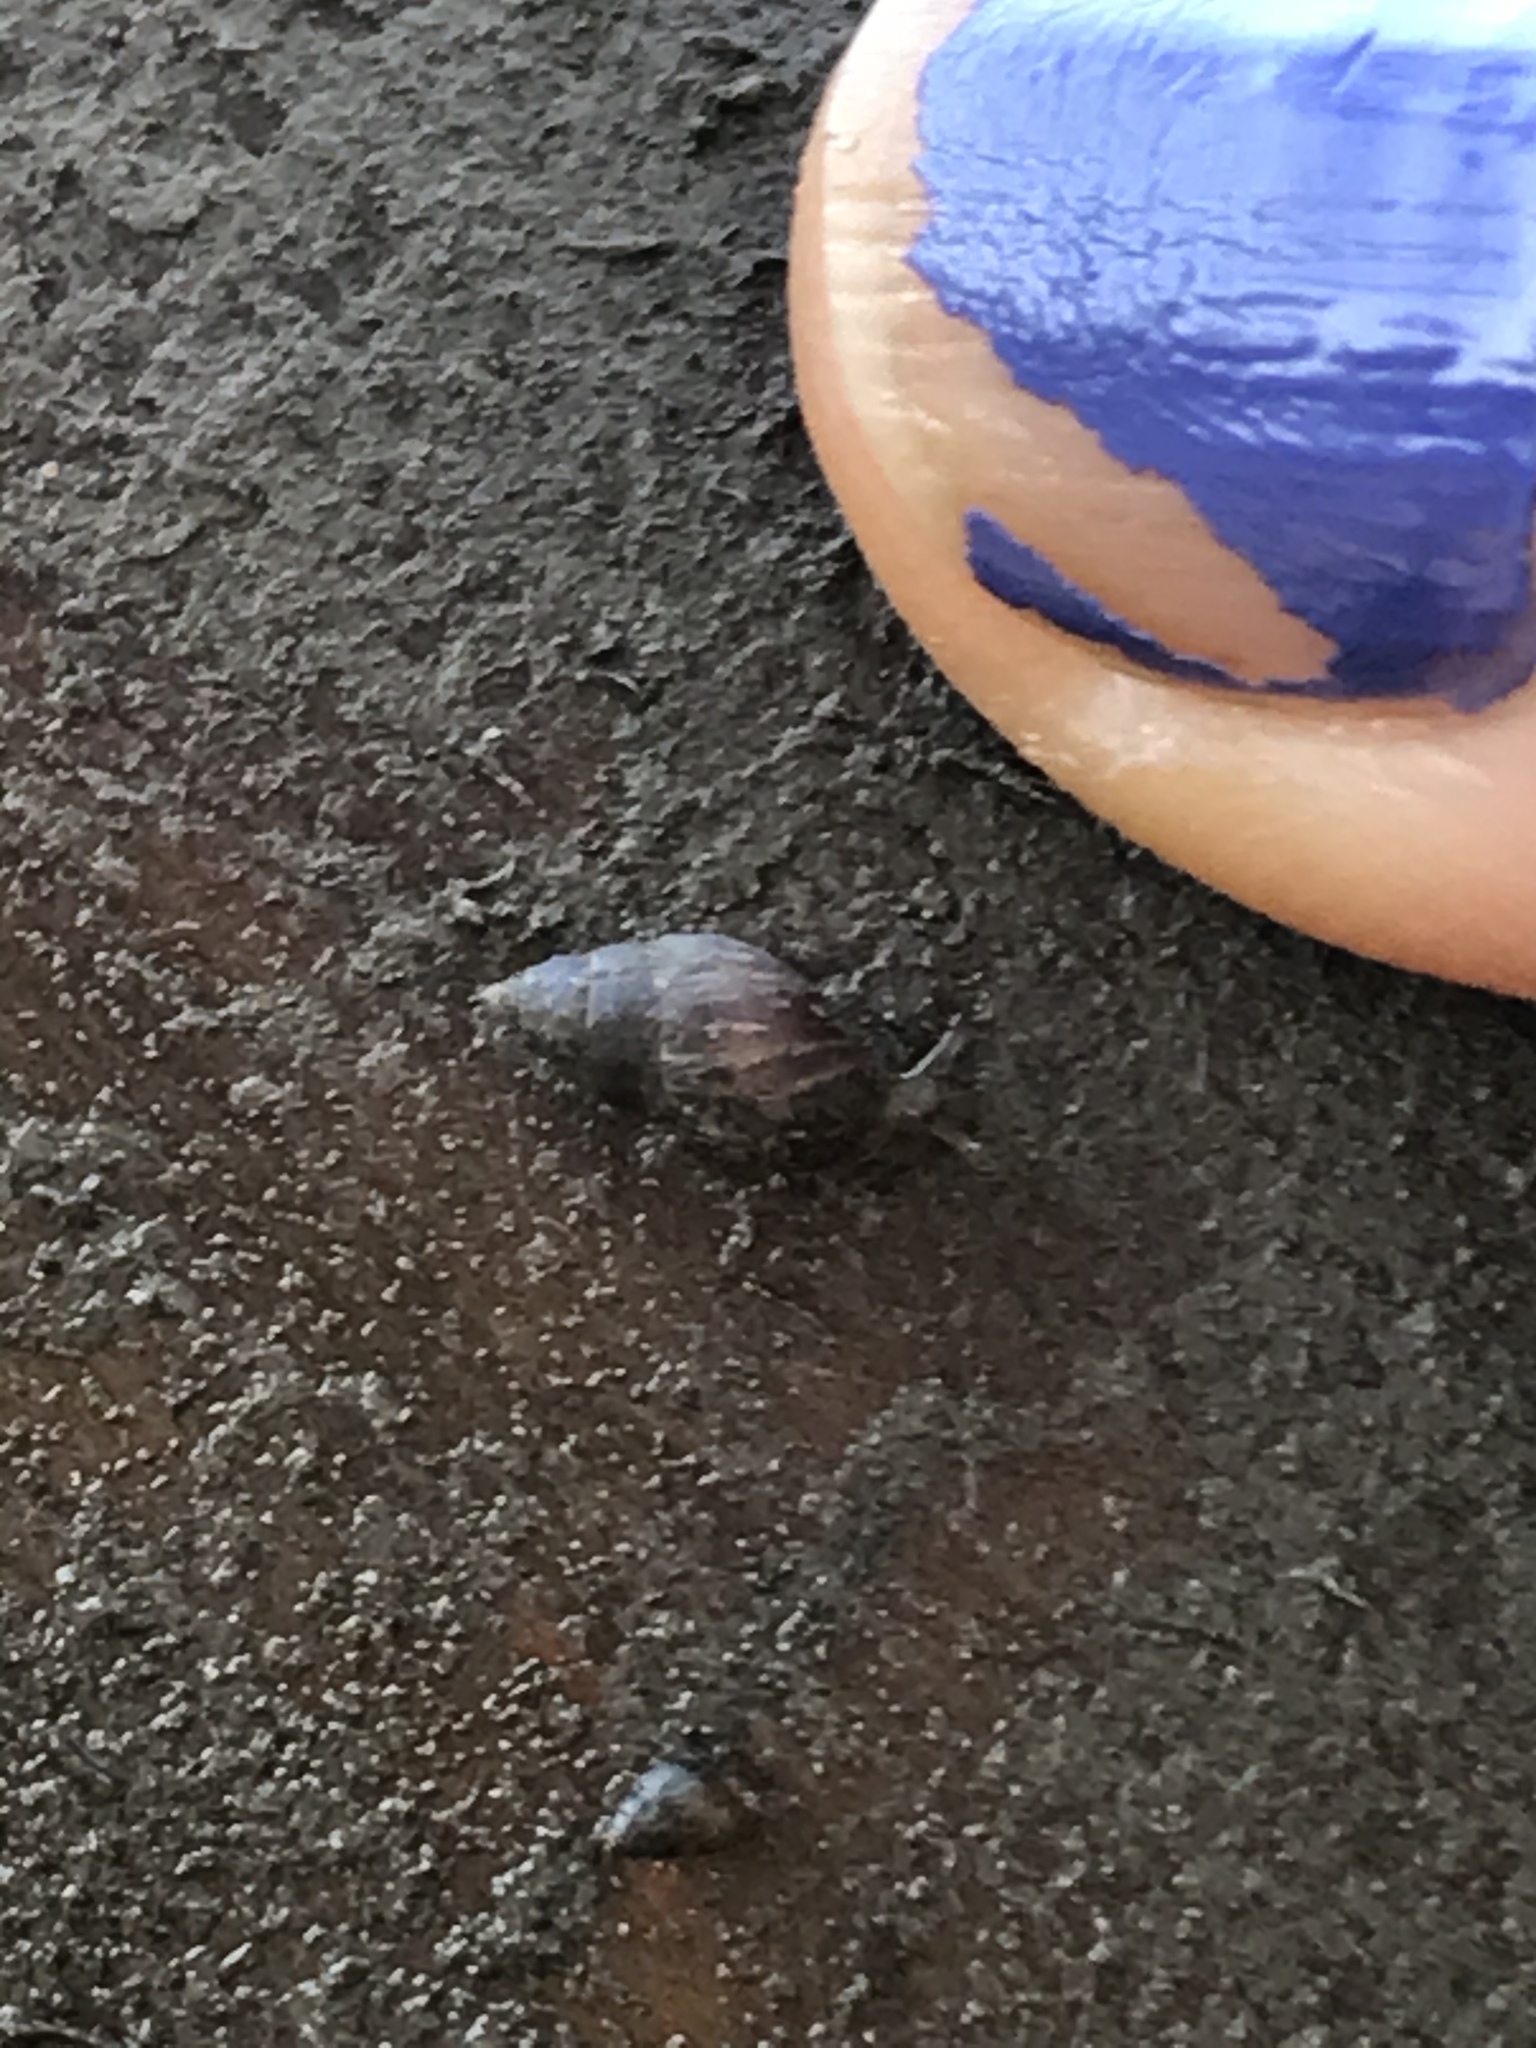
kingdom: Animalia
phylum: Mollusca
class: Gastropoda
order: Ellobiida
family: Ellobiidae
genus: Myosotella
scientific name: Myosotella myosotis
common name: Mouse-eared snail
